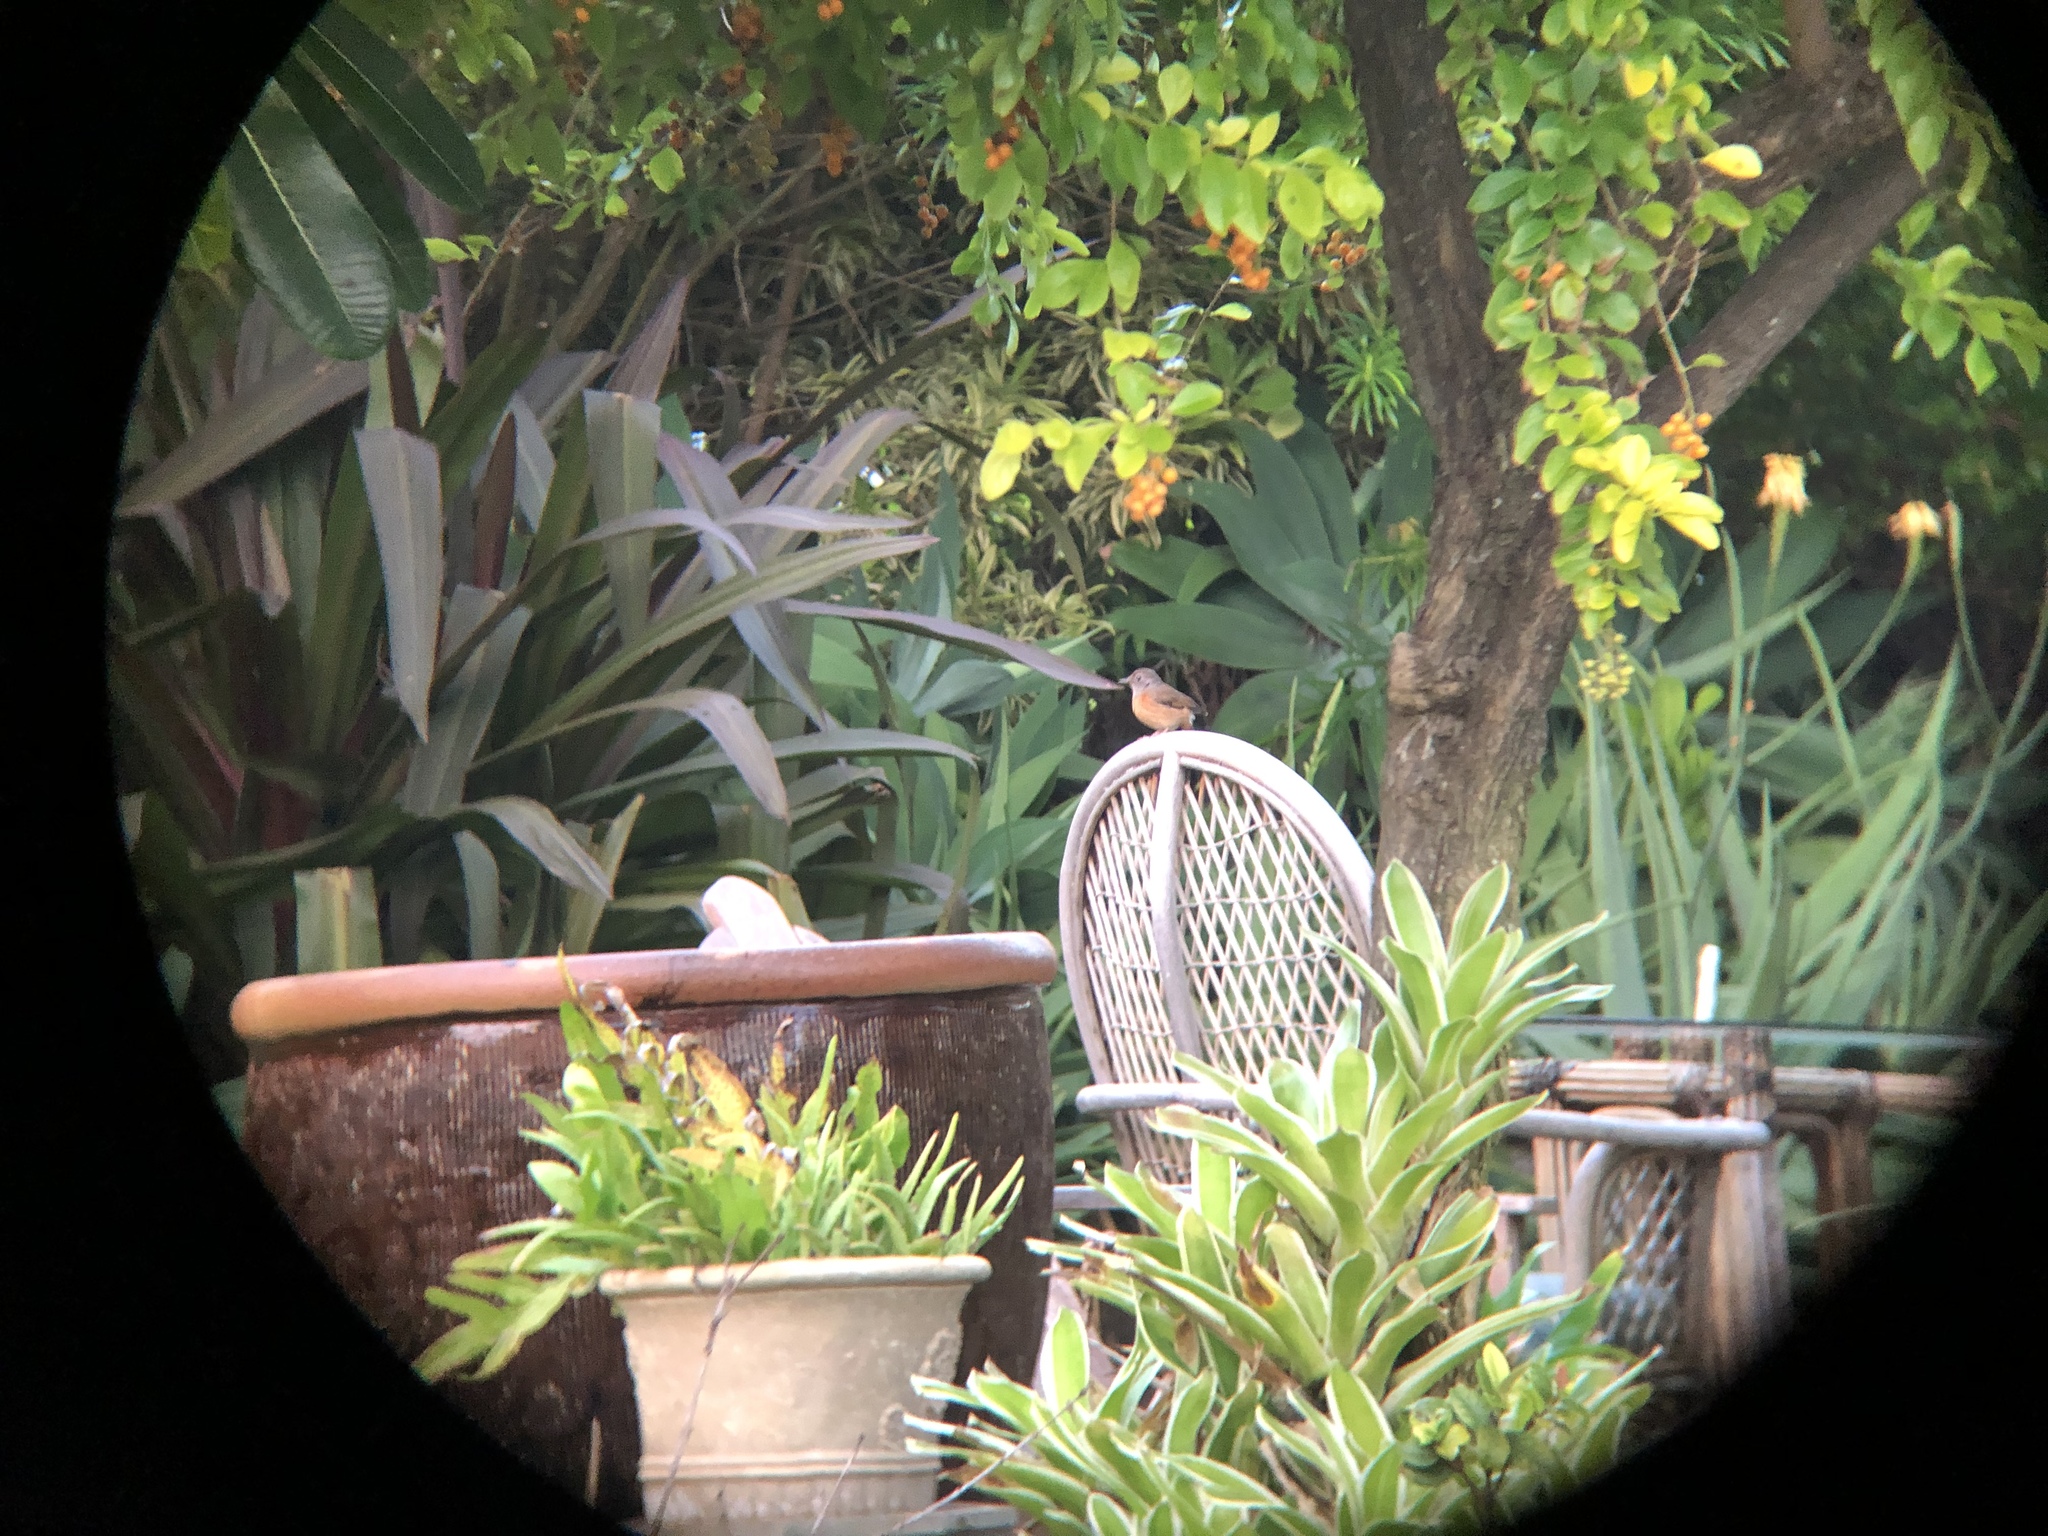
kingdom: Animalia
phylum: Chordata
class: Aves
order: Passeriformes
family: Muscicapidae
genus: Copsychus
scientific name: Copsychus malabaricus
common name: White-rumped shama
